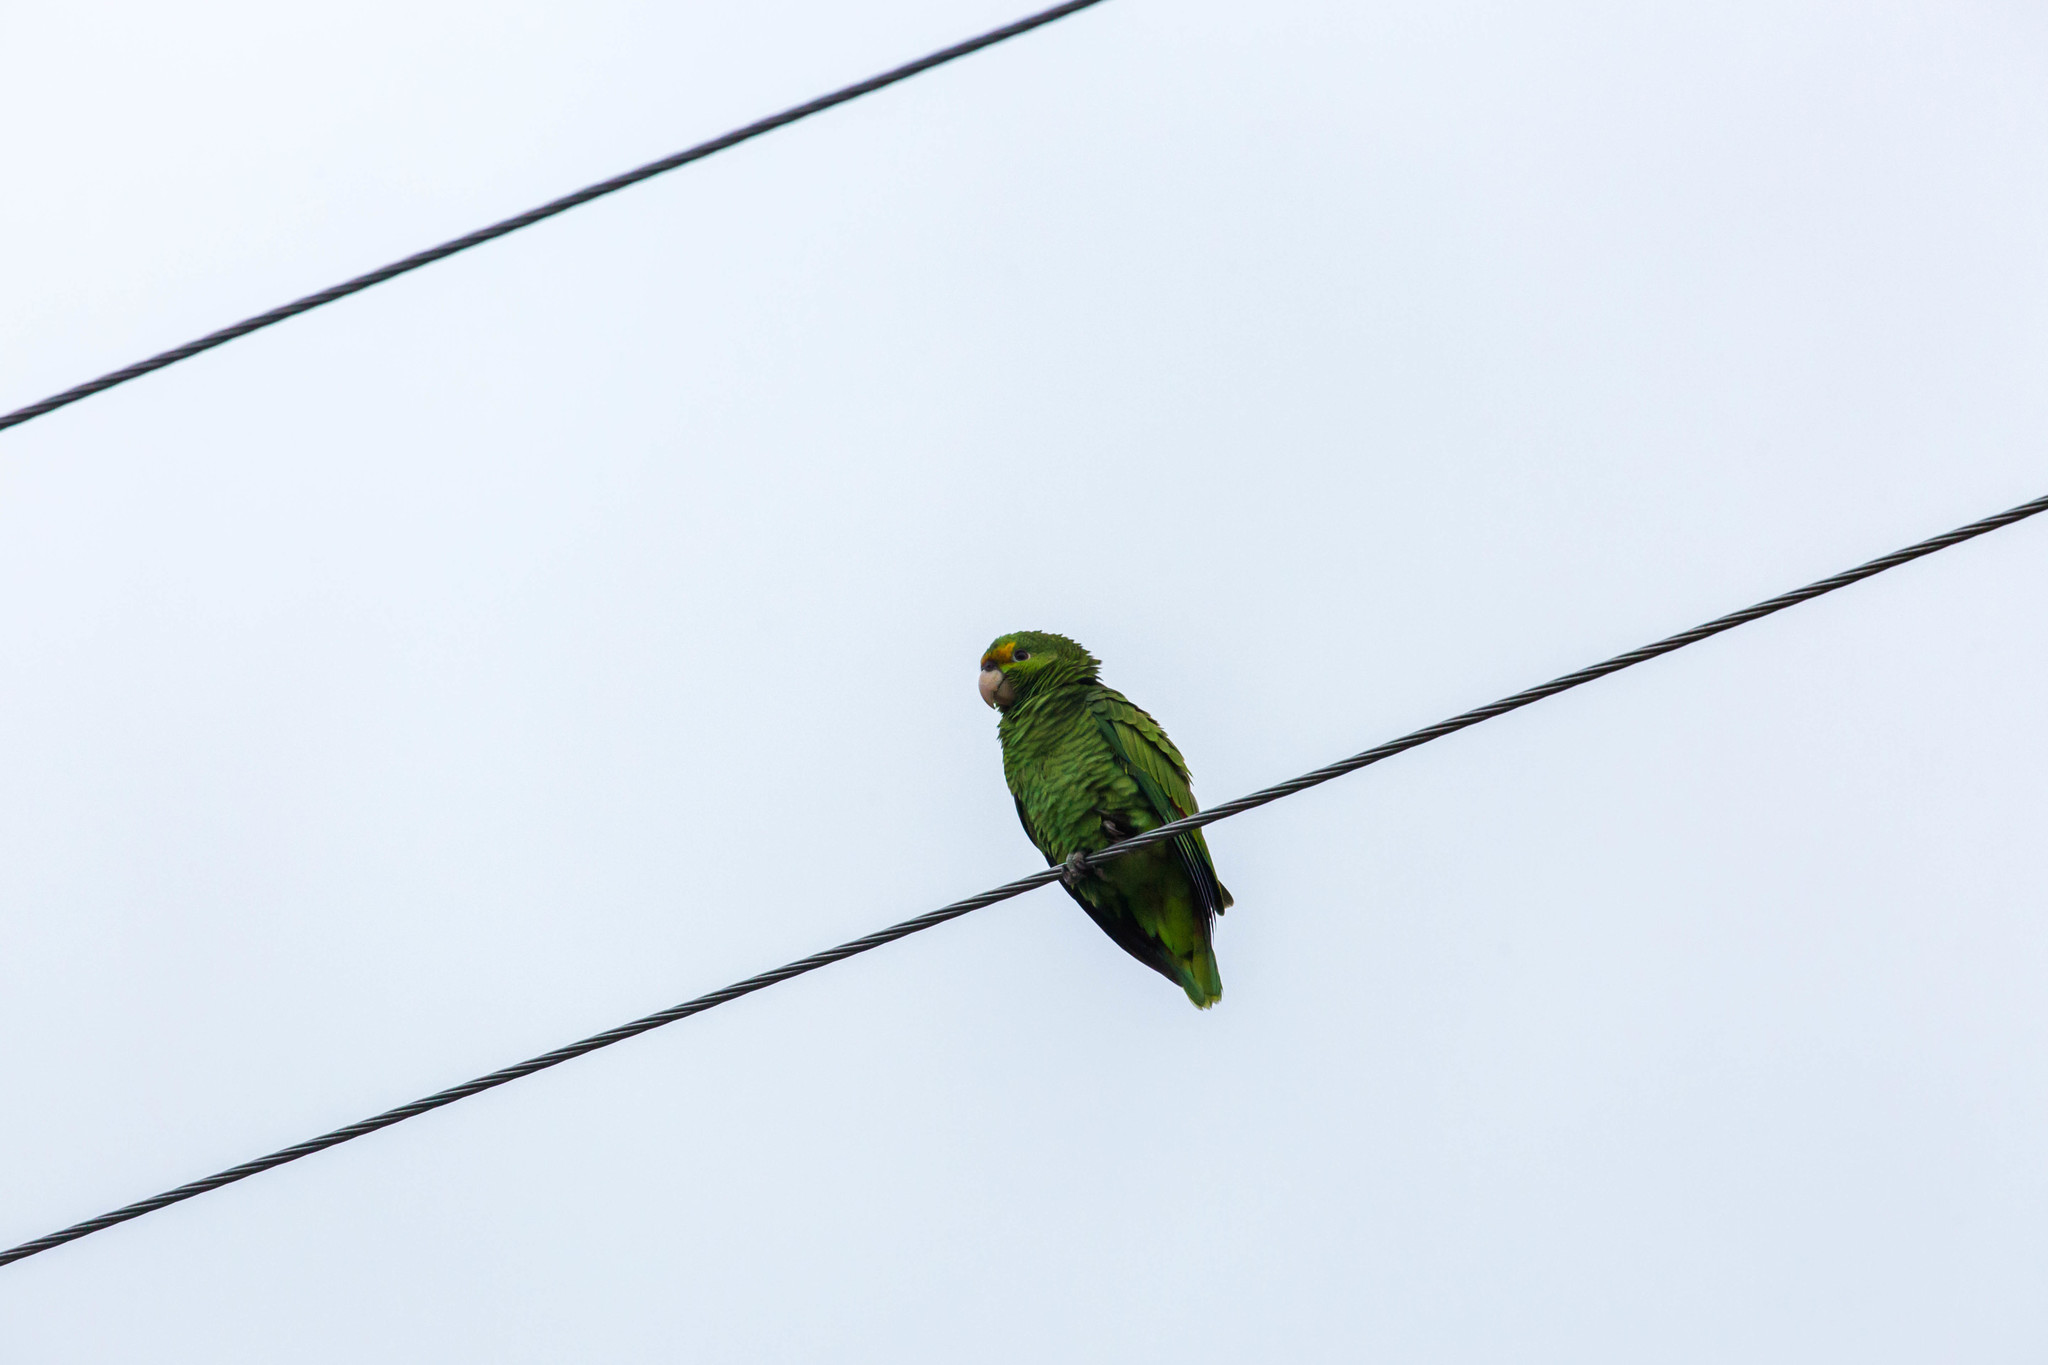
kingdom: Animalia
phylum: Chordata
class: Aves
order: Psittaciformes
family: Psittacidae
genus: Amazona
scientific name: Amazona
